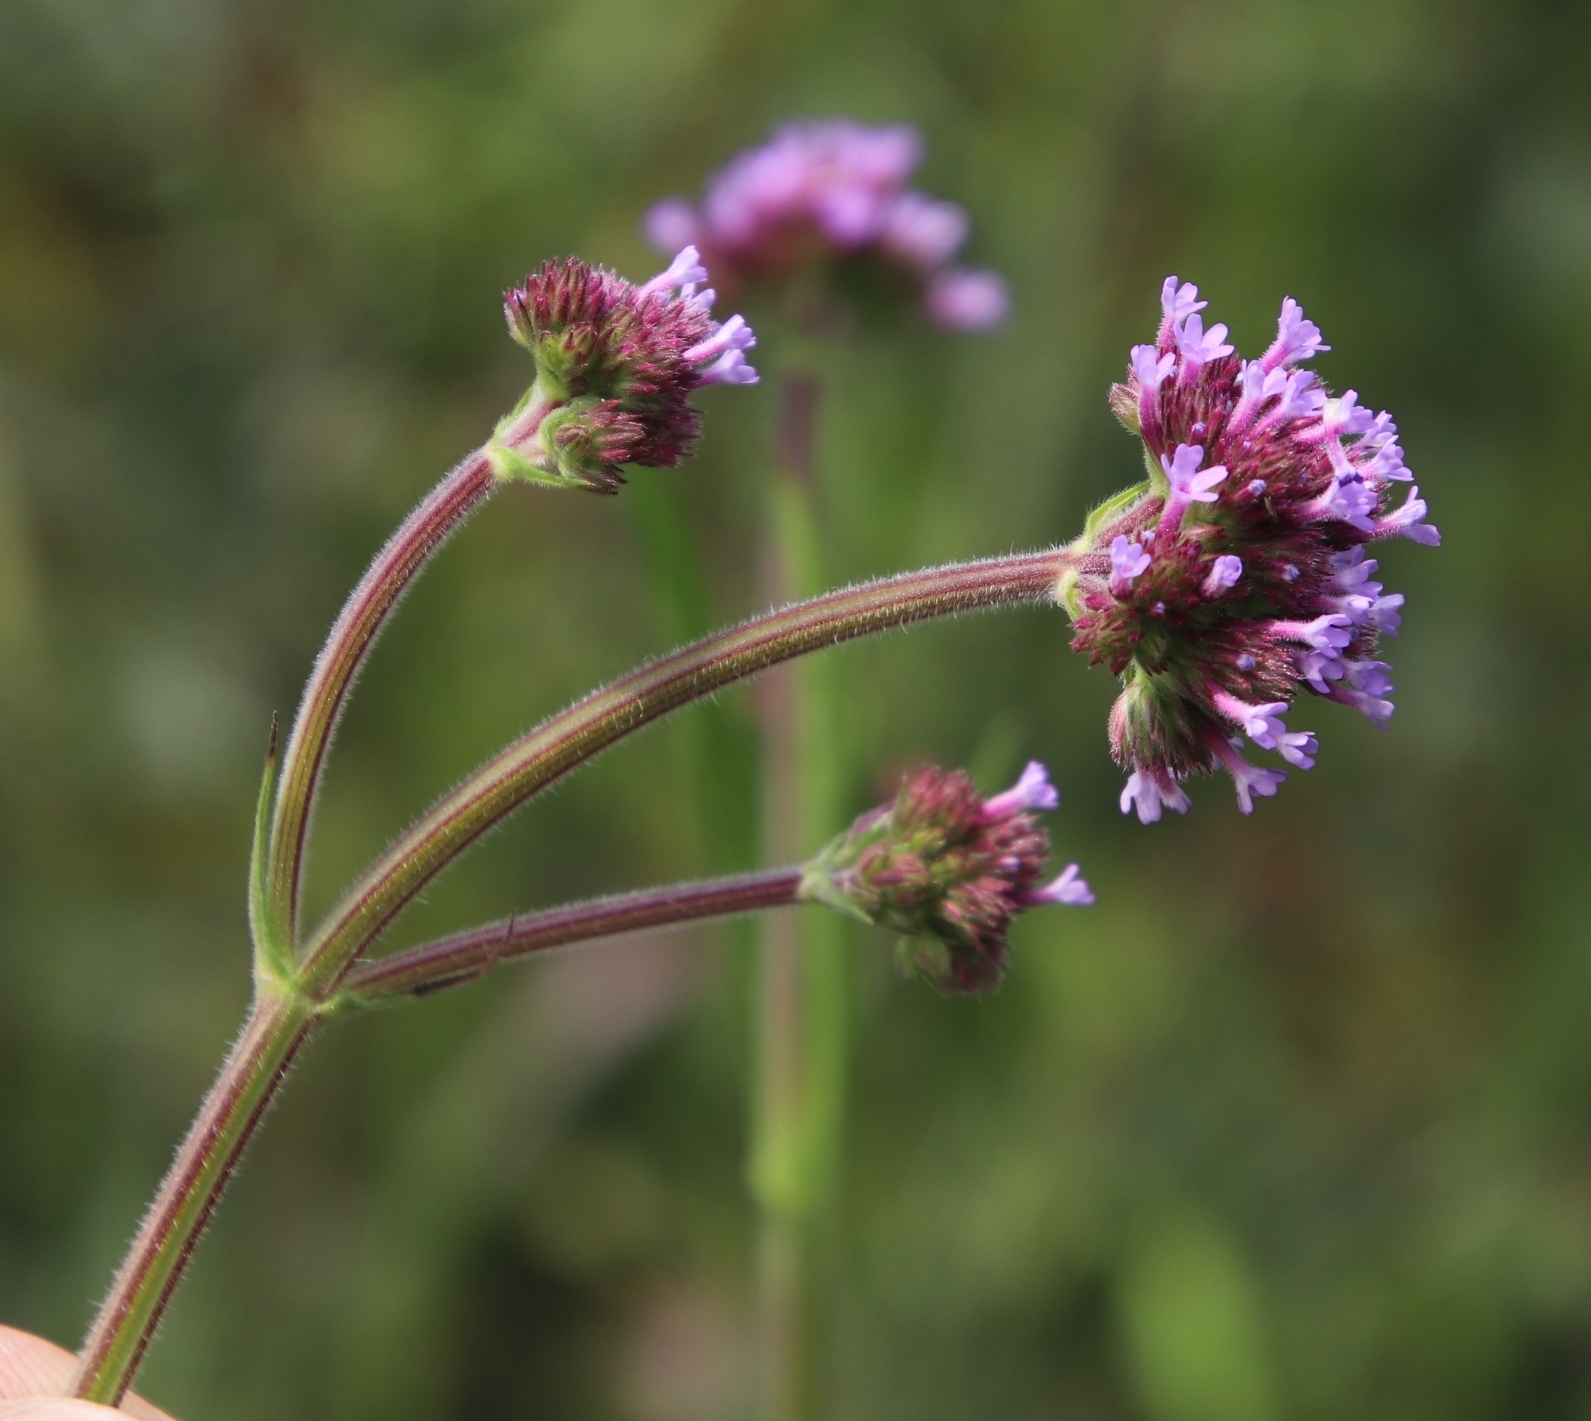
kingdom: Plantae
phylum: Tracheophyta
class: Magnoliopsida
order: Lamiales
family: Verbenaceae
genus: Verbena
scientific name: Verbena bonariensis
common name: Purpletop vervain
